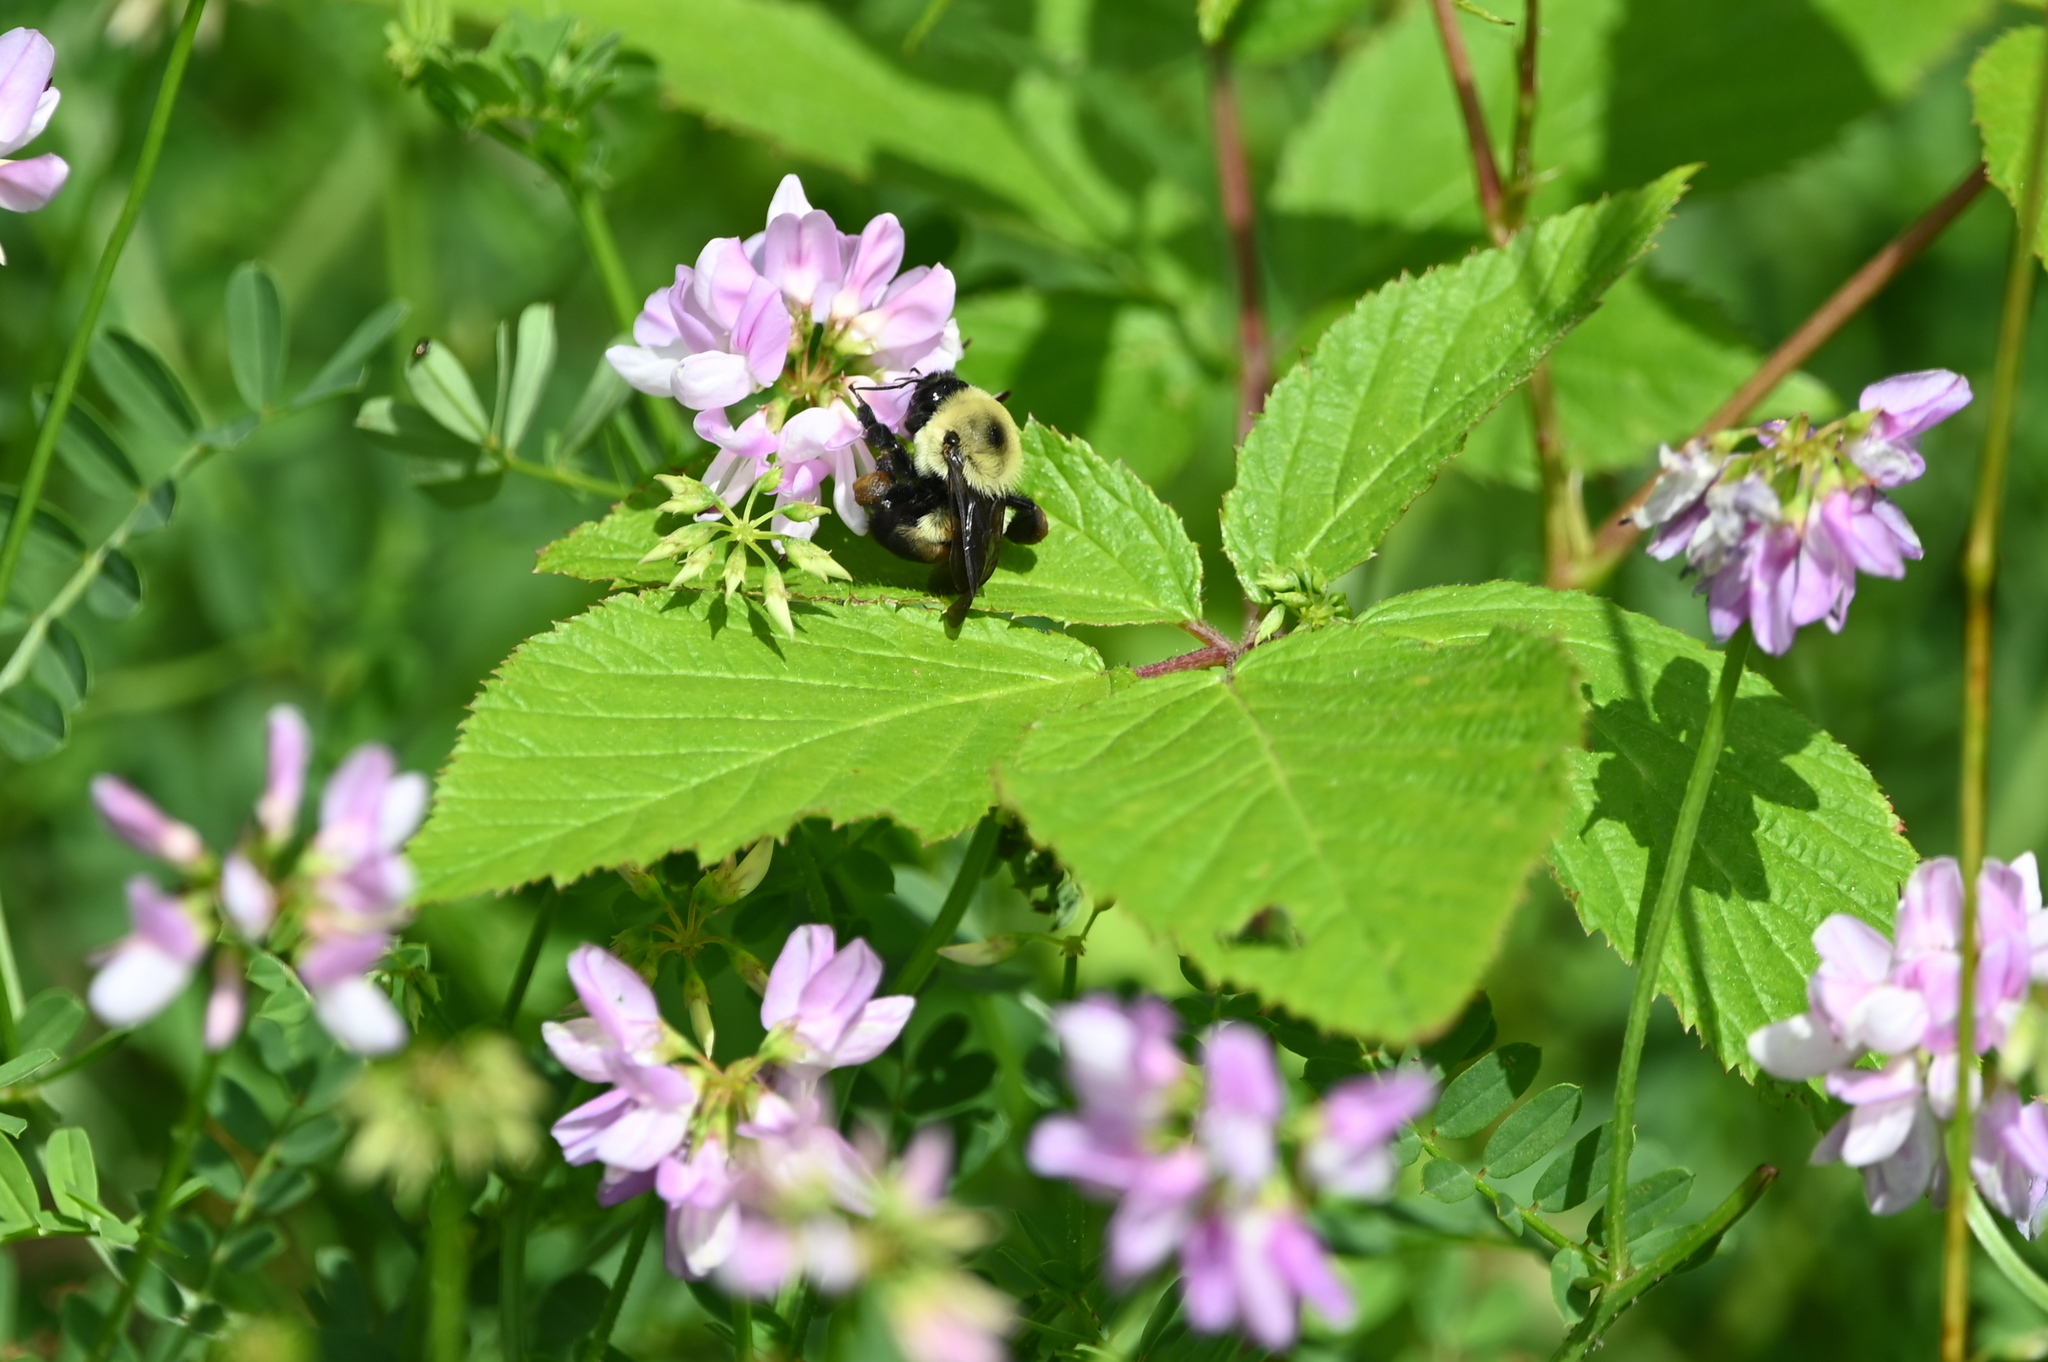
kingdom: Animalia
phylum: Arthropoda
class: Insecta
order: Hymenoptera
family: Apidae
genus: Bombus
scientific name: Bombus griseocollis
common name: Brown-belted bumble bee
